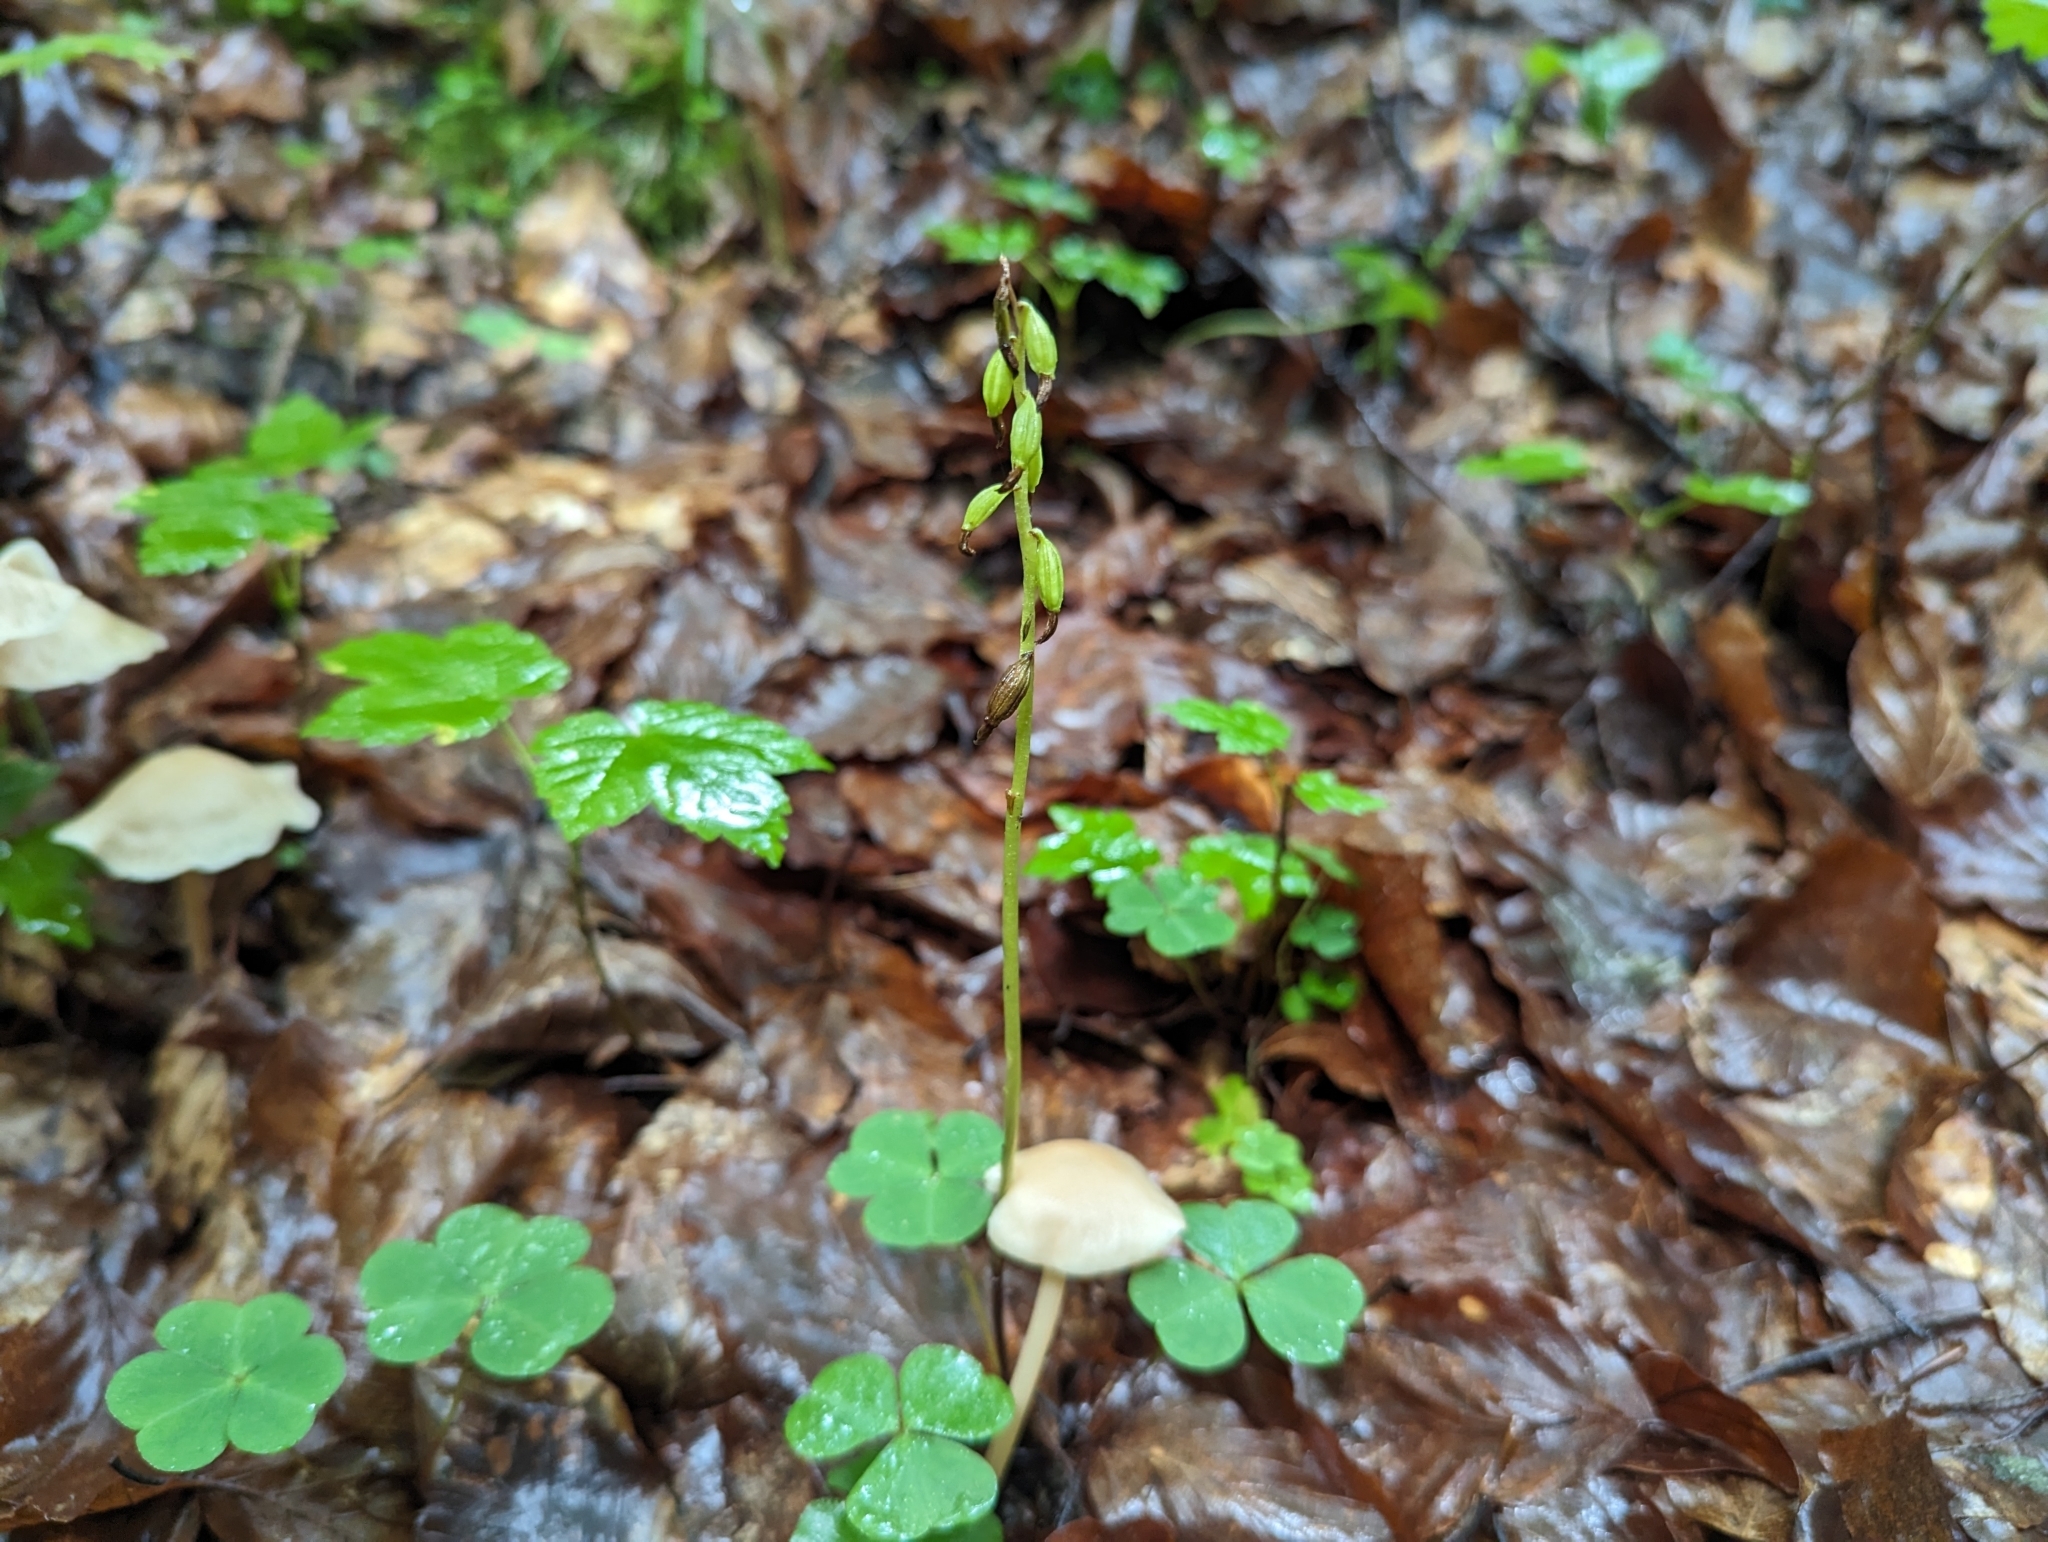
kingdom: Plantae
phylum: Tracheophyta
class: Liliopsida
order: Asparagales
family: Orchidaceae
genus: Corallorhiza
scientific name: Corallorhiza trifida
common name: Yellow coralroot
